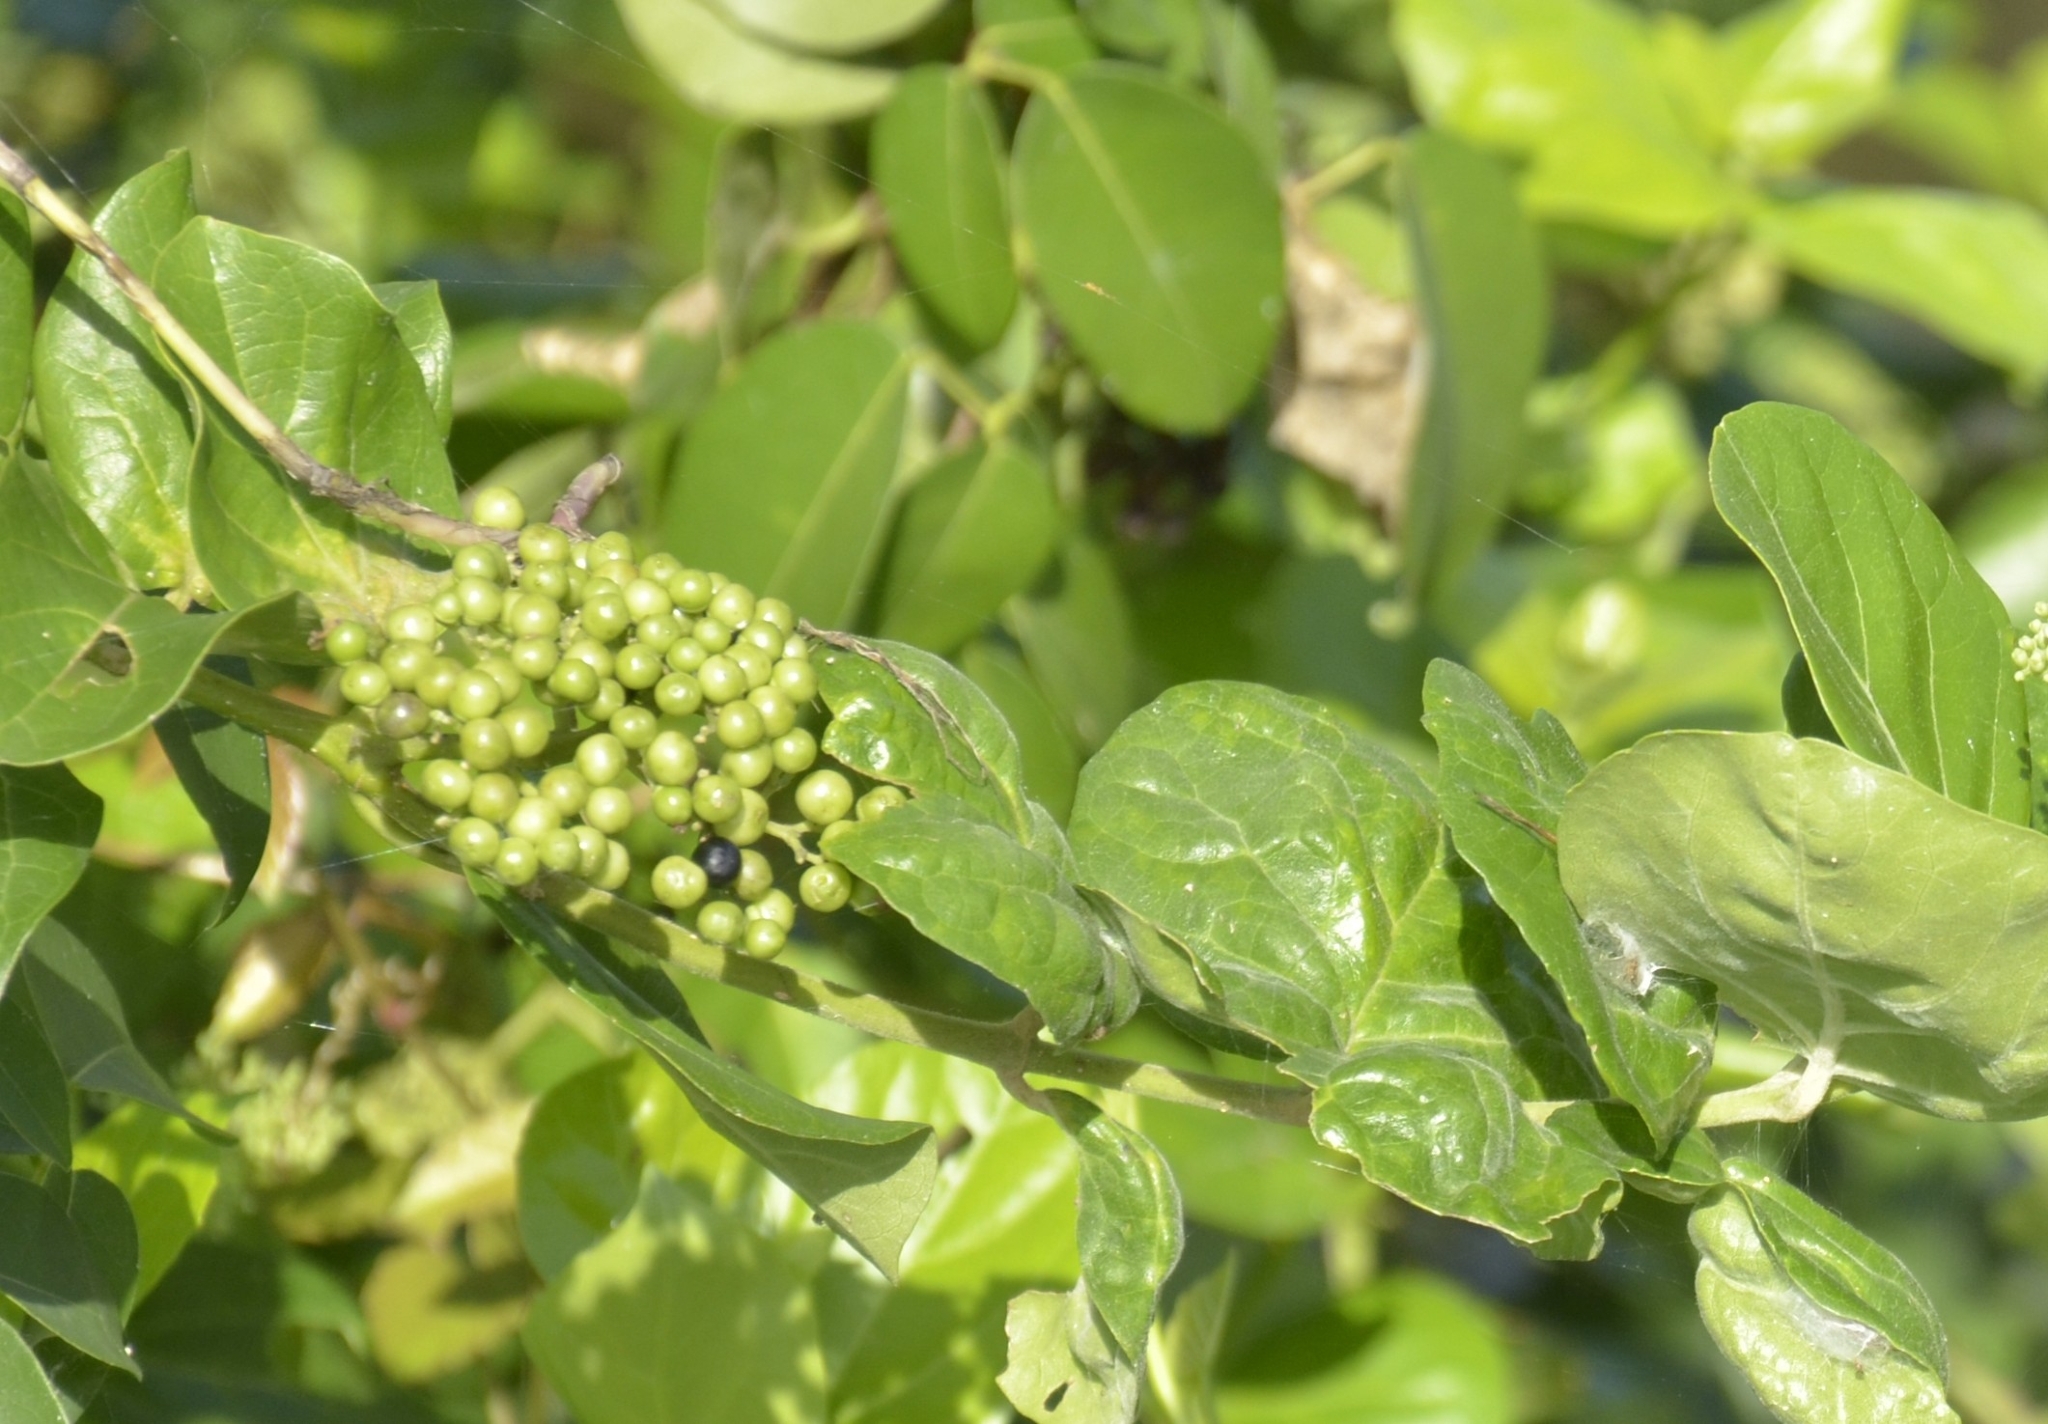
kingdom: Plantae
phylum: Tracheophyta
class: Magnoliopsida
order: Lamiales
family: Lamiaceae
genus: Premna
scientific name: Premna serratifolia
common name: Bastard guelder
